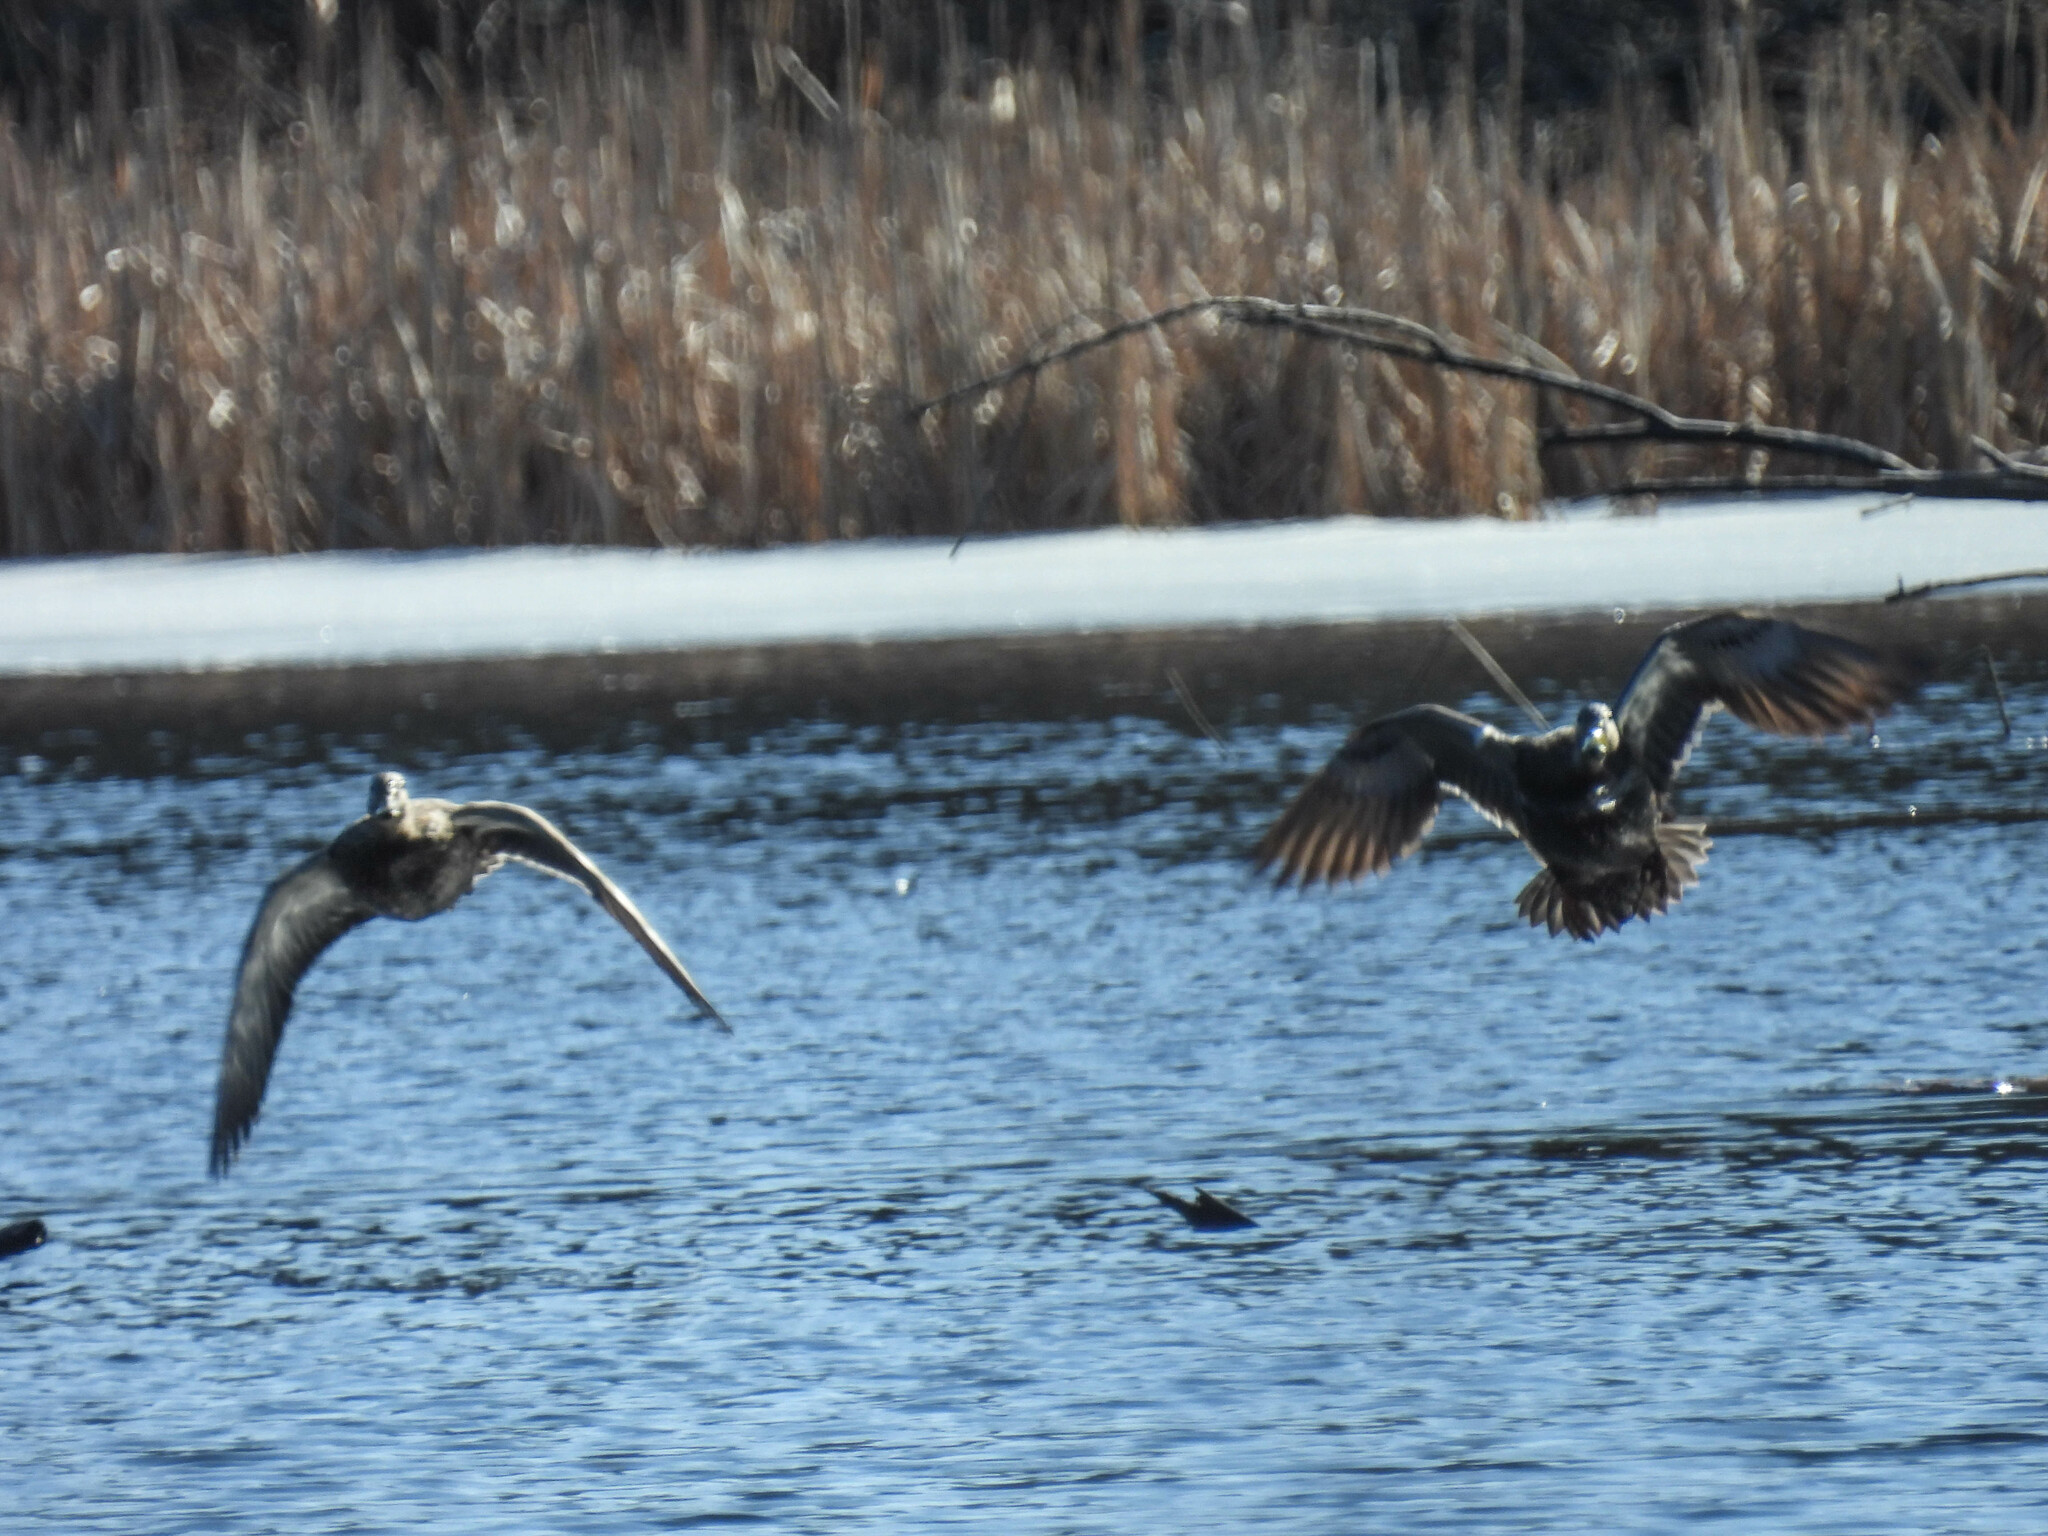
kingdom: Animalia
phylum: Chordata
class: Aves
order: Anseriformes
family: Anatidae
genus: Anas
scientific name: Anas platyrhynchos
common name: Mallard
